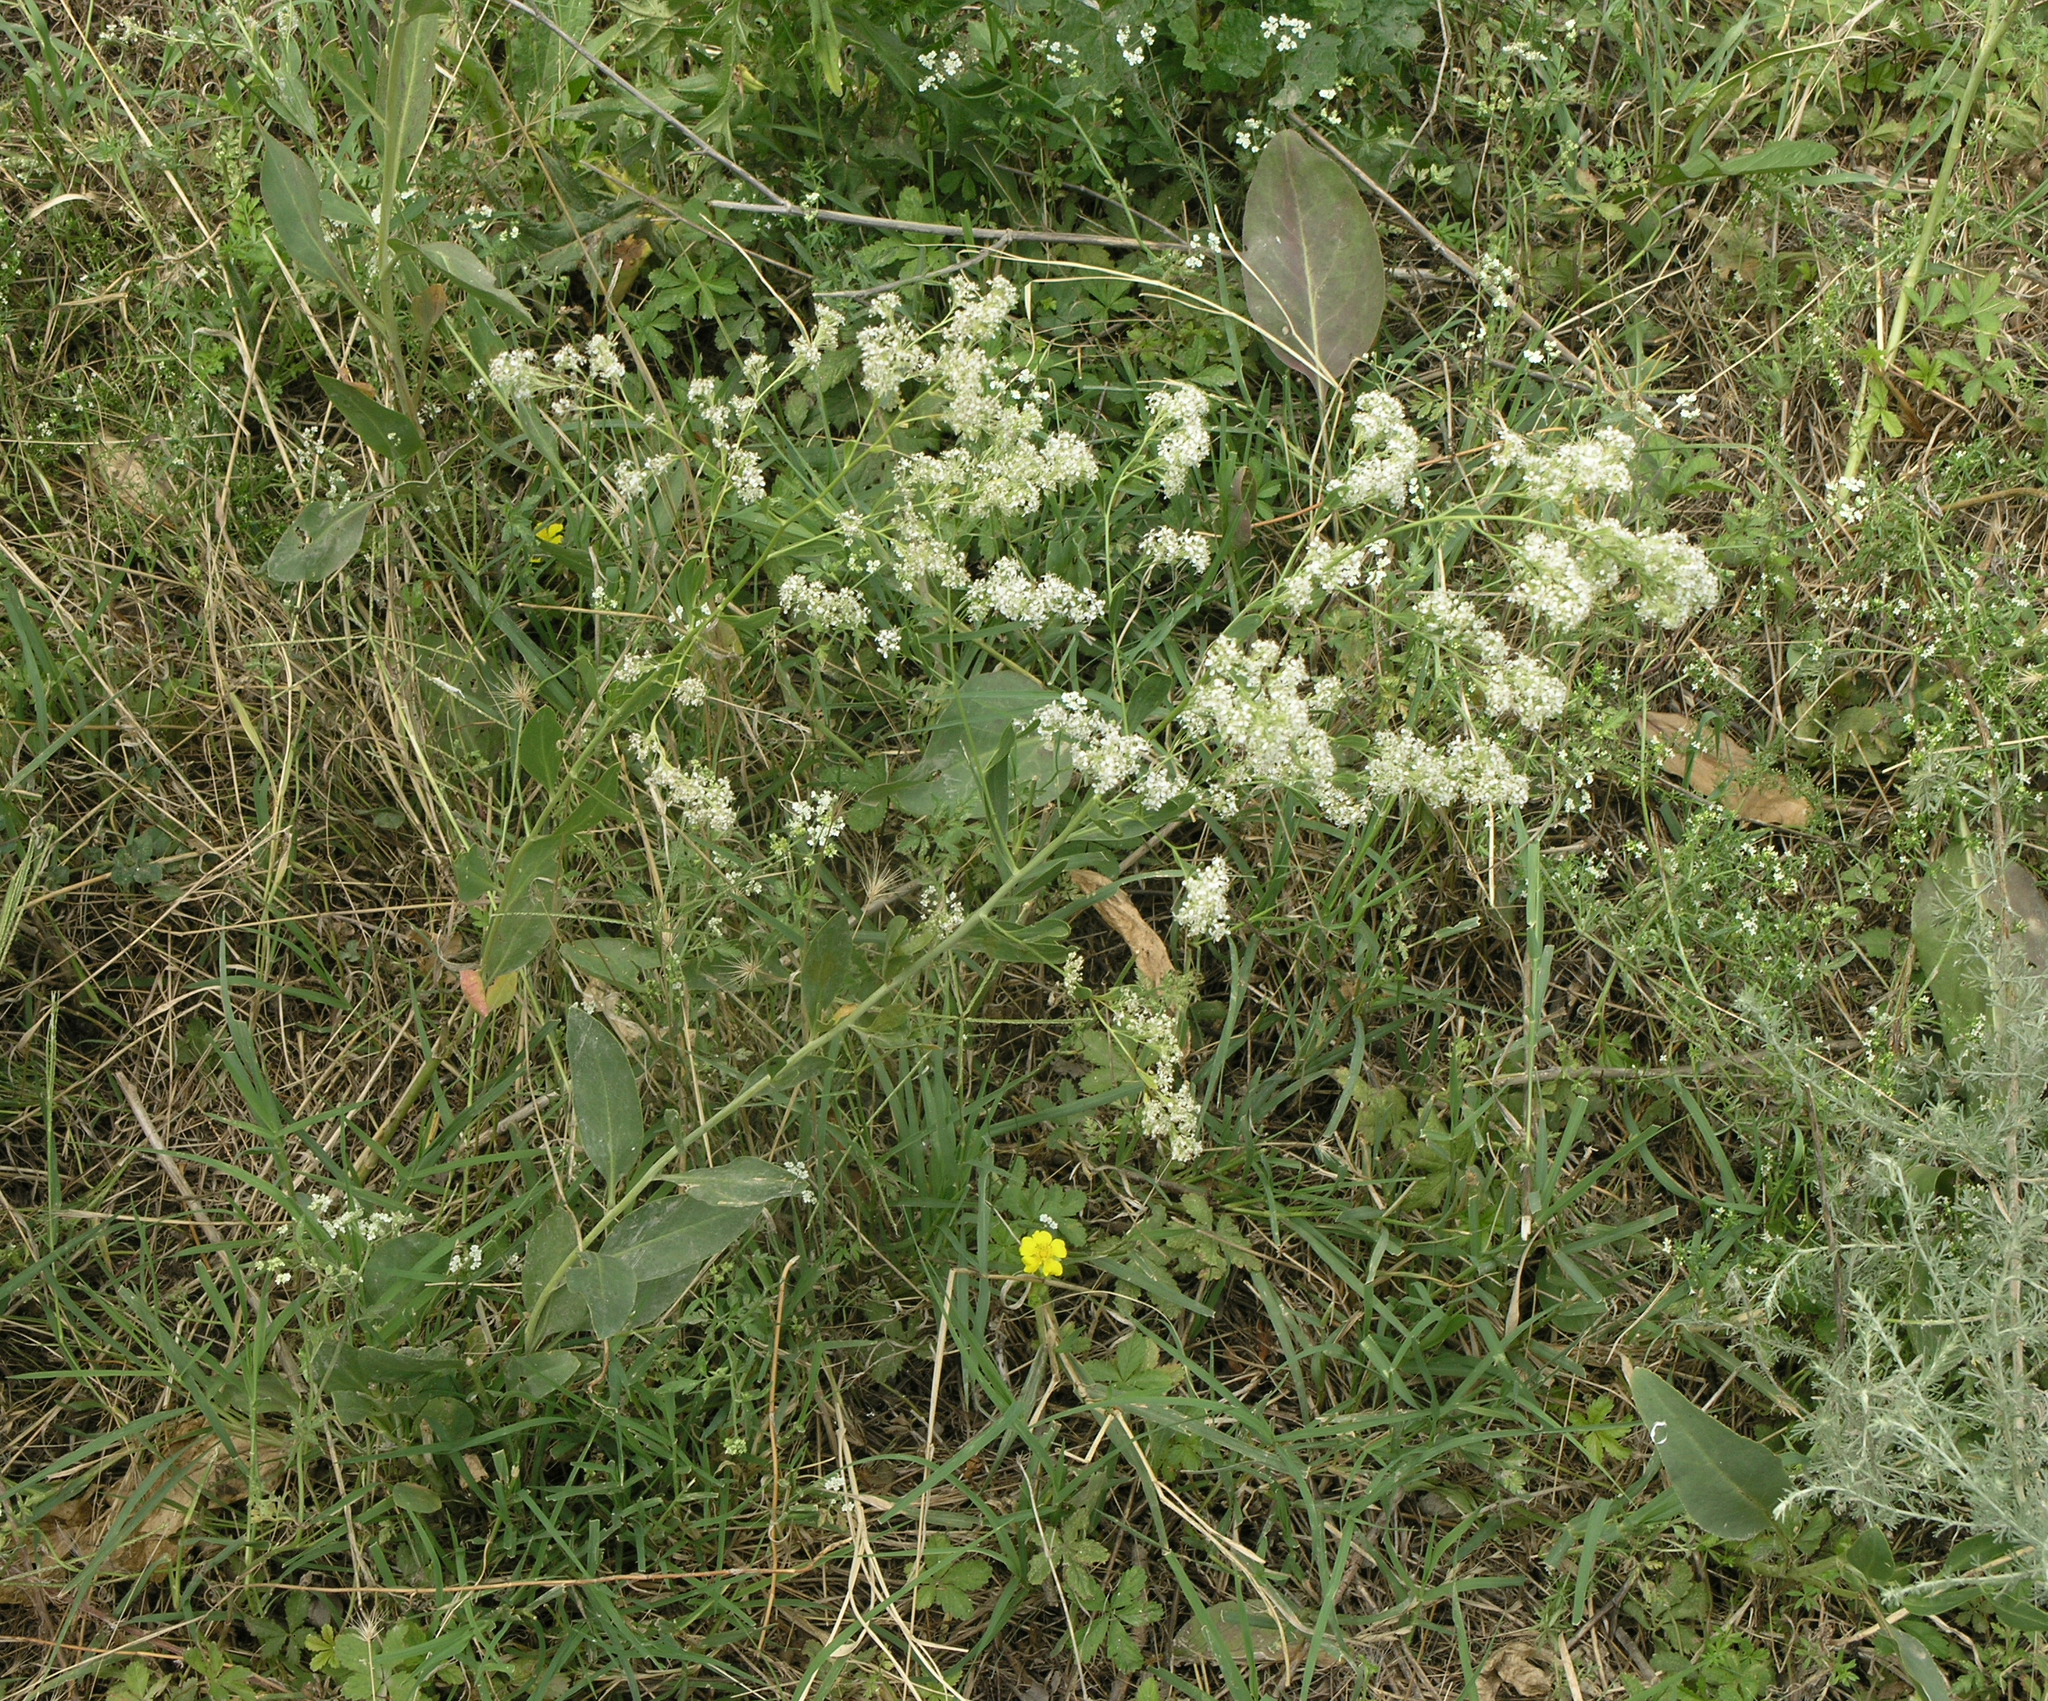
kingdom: Plantae
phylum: Tracheophyta
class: Magnoliopsida
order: Brassicales
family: Brassicaceae
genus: Lepidium
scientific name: Lepidium latifolium
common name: Dittander
